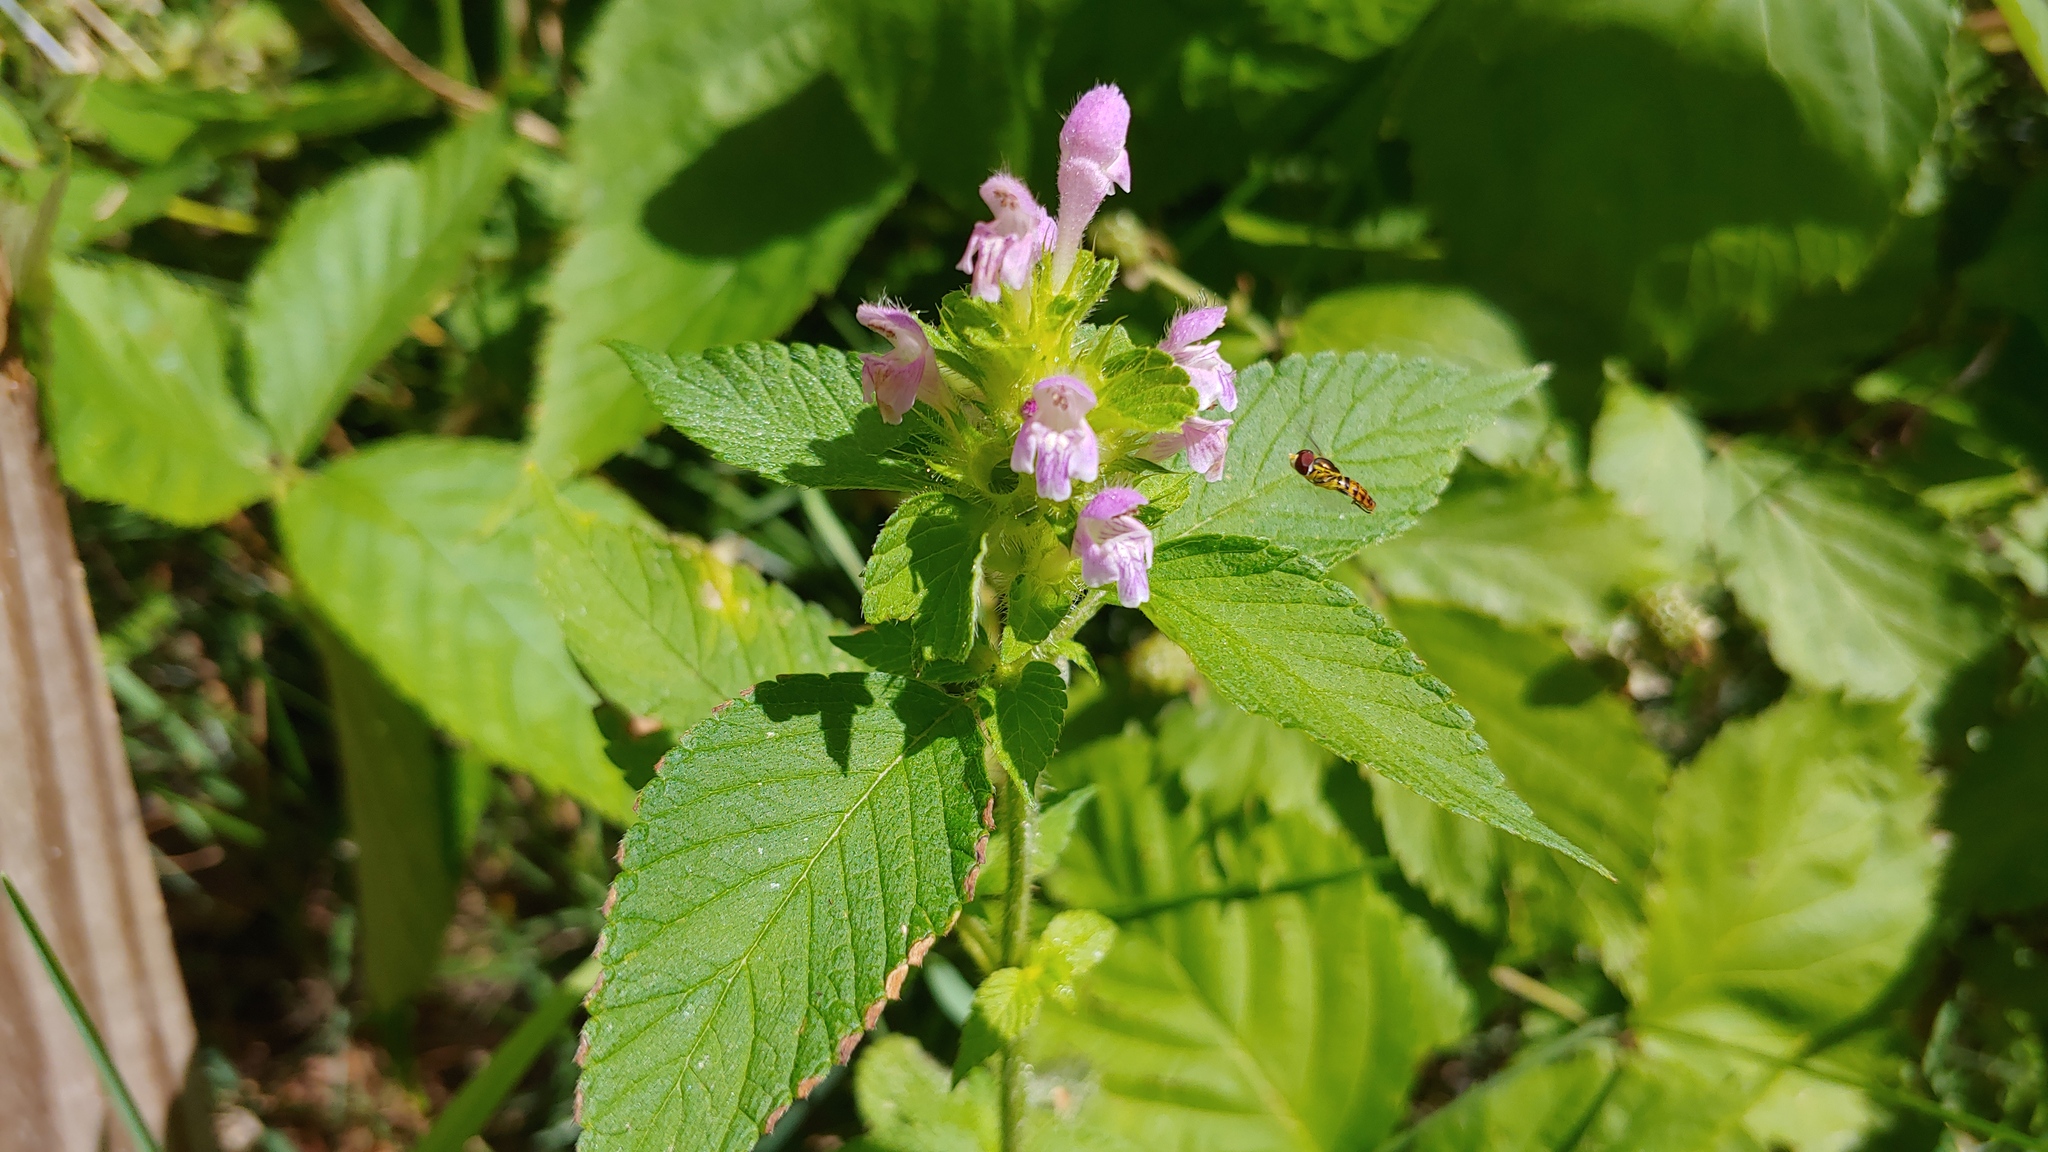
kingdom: Plantae
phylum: Tracheophyta
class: Magnoliopsida
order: Lamiales
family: Lamiaceae
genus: Galeopsis
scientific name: Galeopsis bifida
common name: Bifid hemp-nettle
